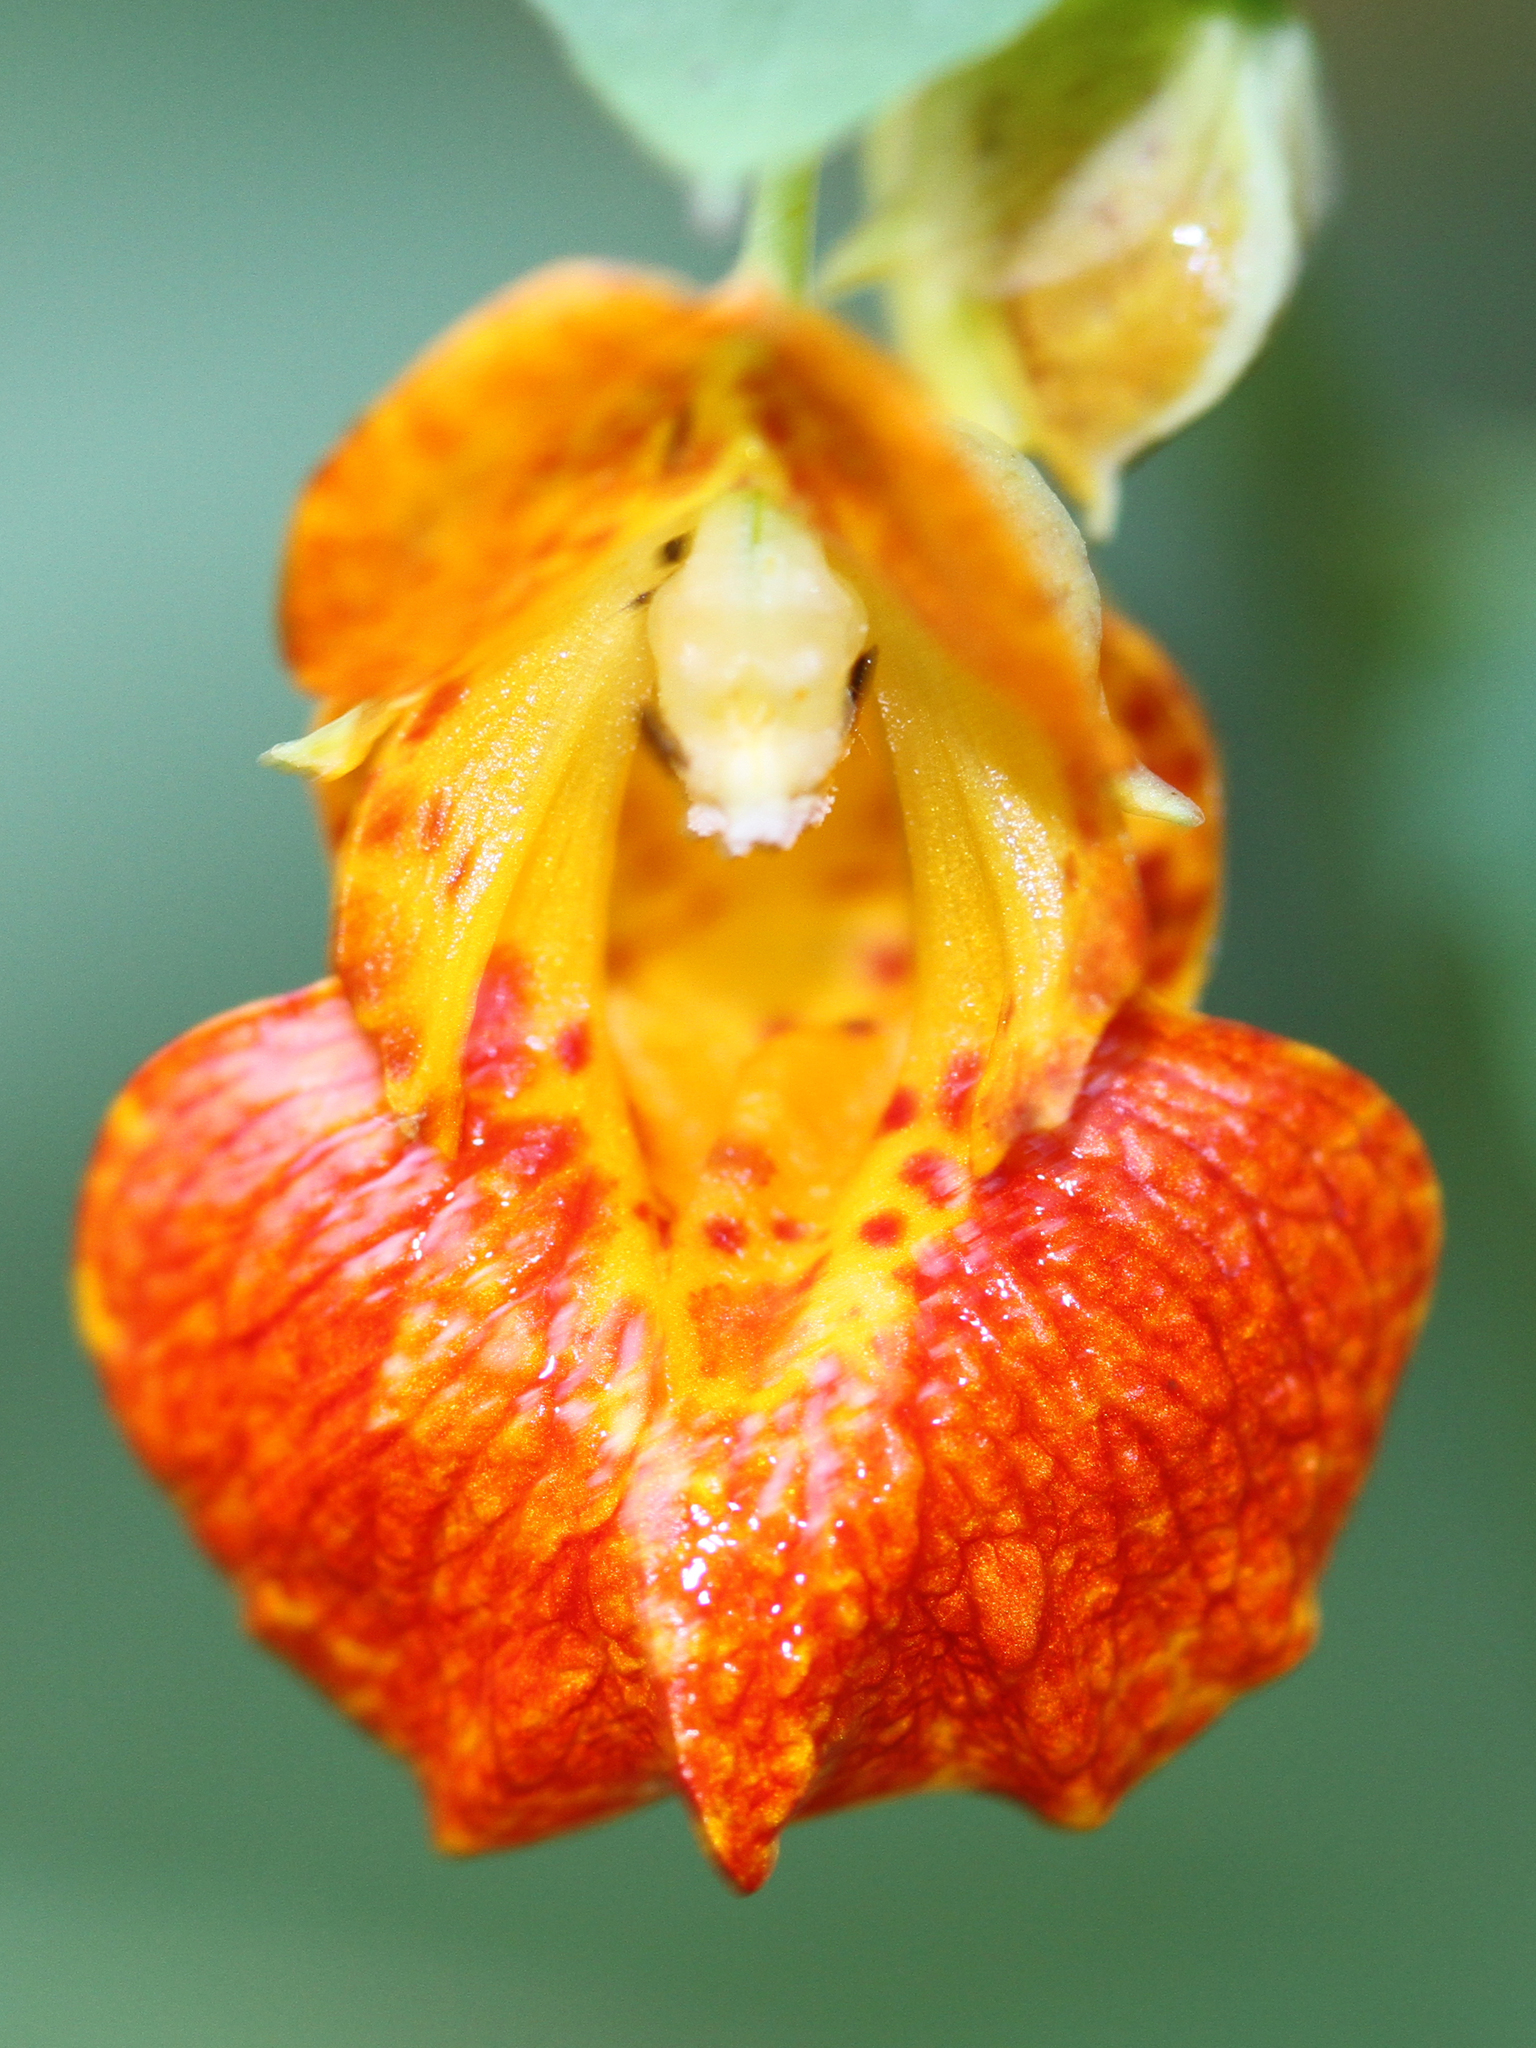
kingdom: Plantae
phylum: Tracheophyta
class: Magnoliopsida
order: Ericales
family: Balsaminaceae
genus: Impatiens
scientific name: Impatiens capensis
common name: Orange balsam
